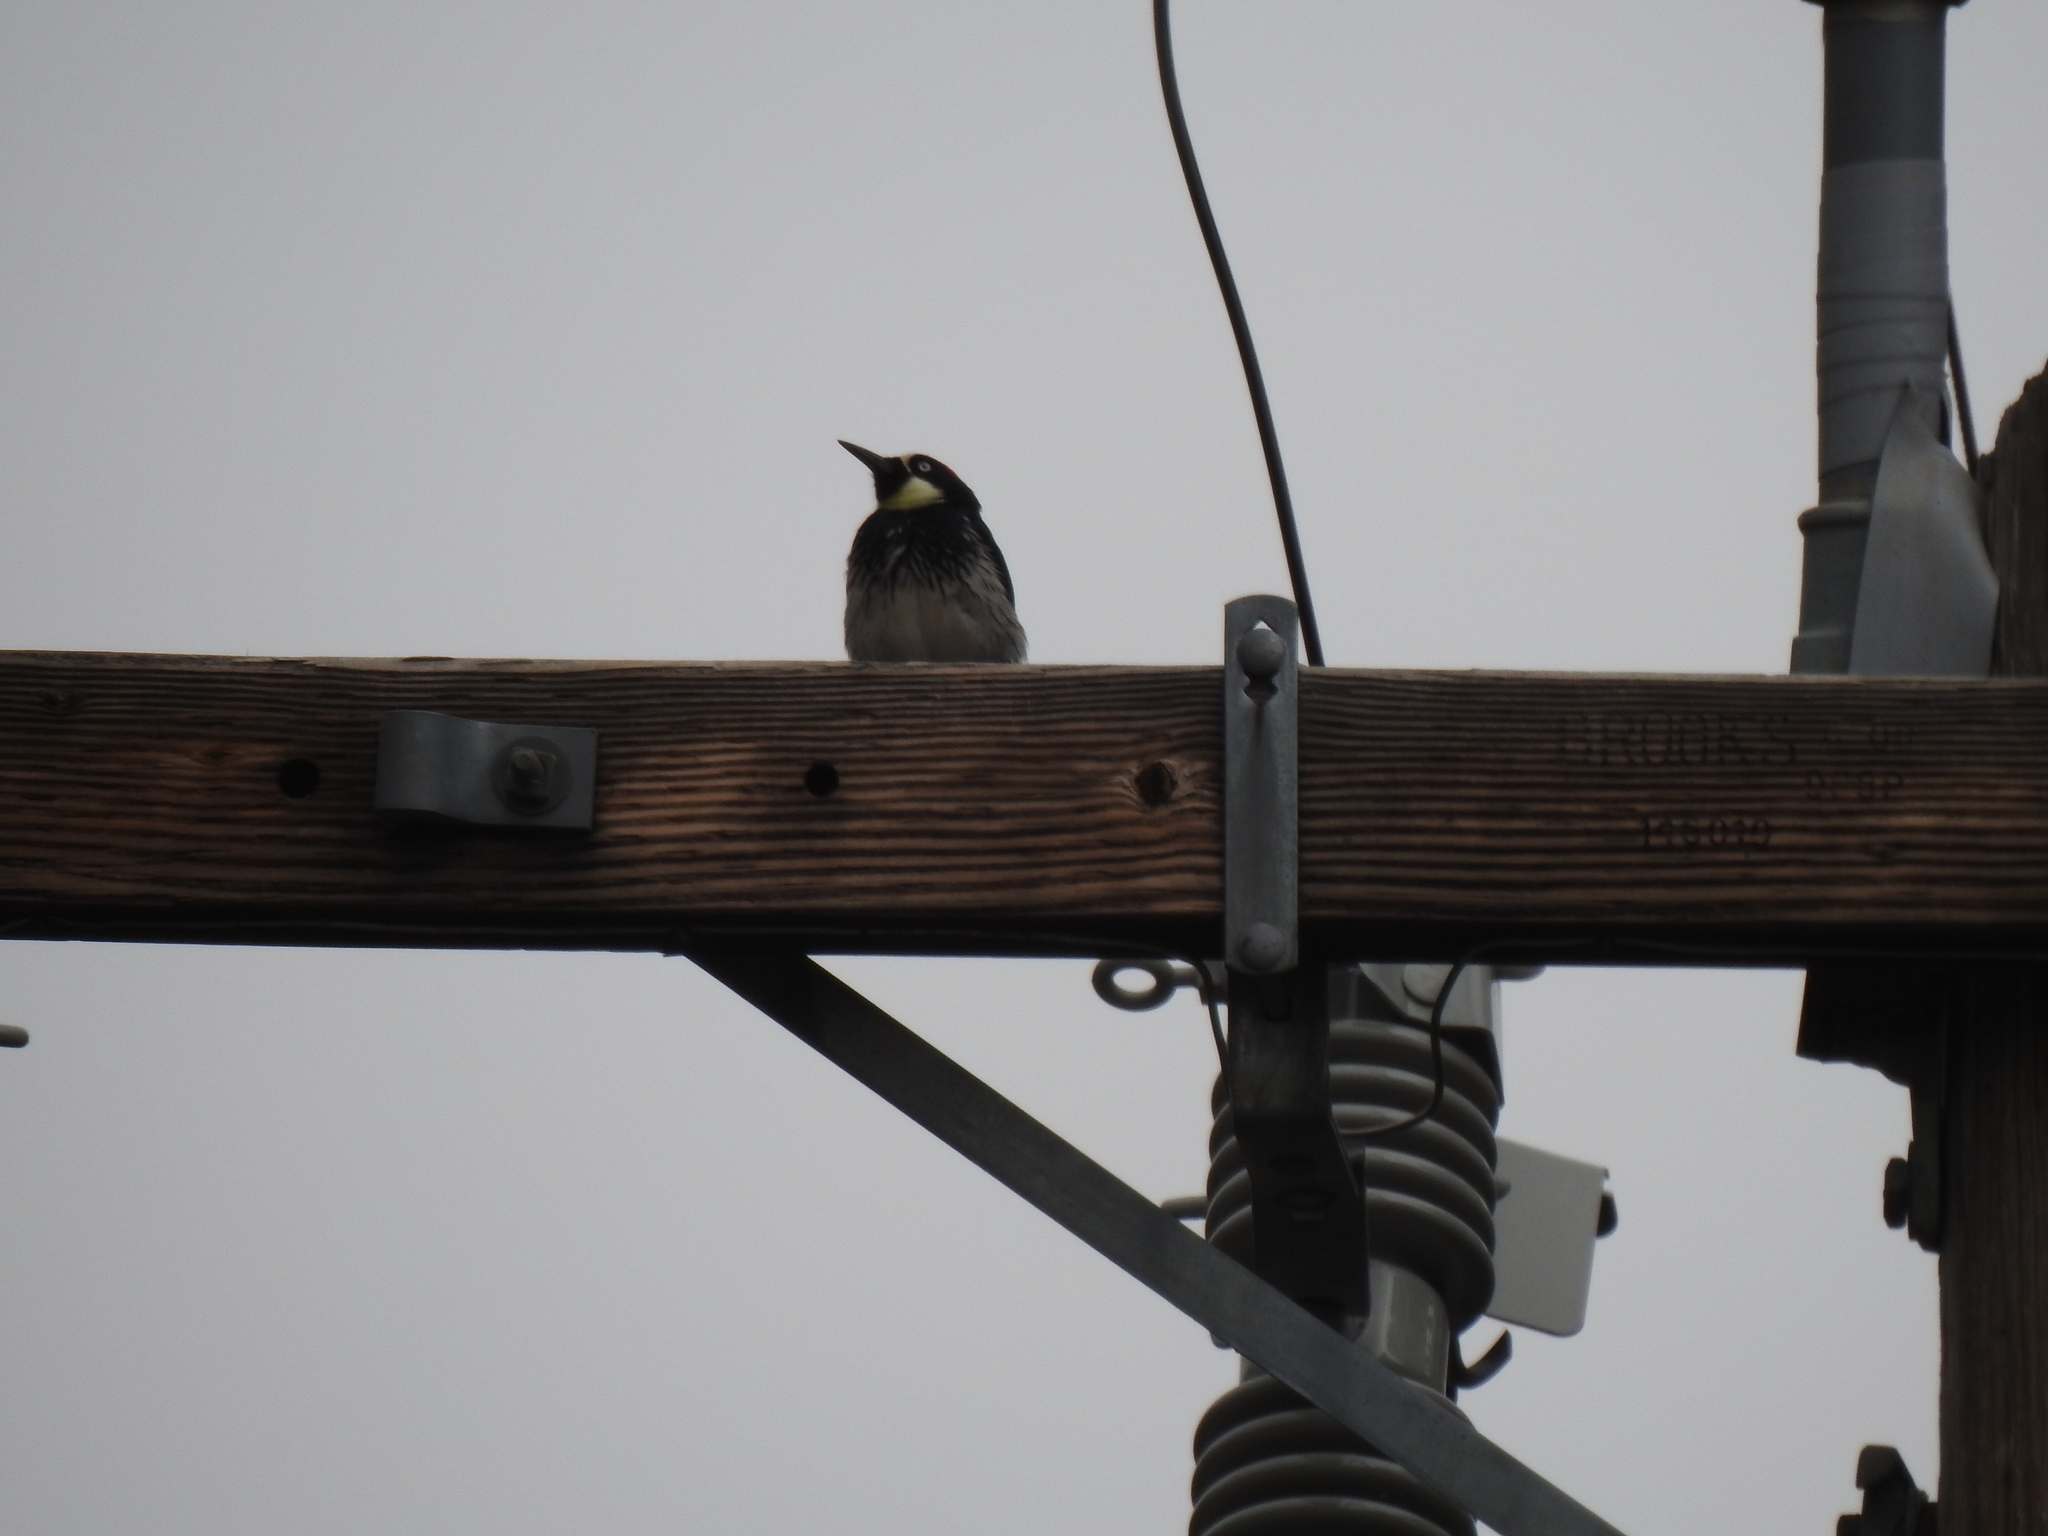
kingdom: Animalia
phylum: Chordata
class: Aves
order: Piciformes
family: Picidae
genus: Melanerpes
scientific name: Melanerpes formicivorus
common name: Acorn woodpecker
